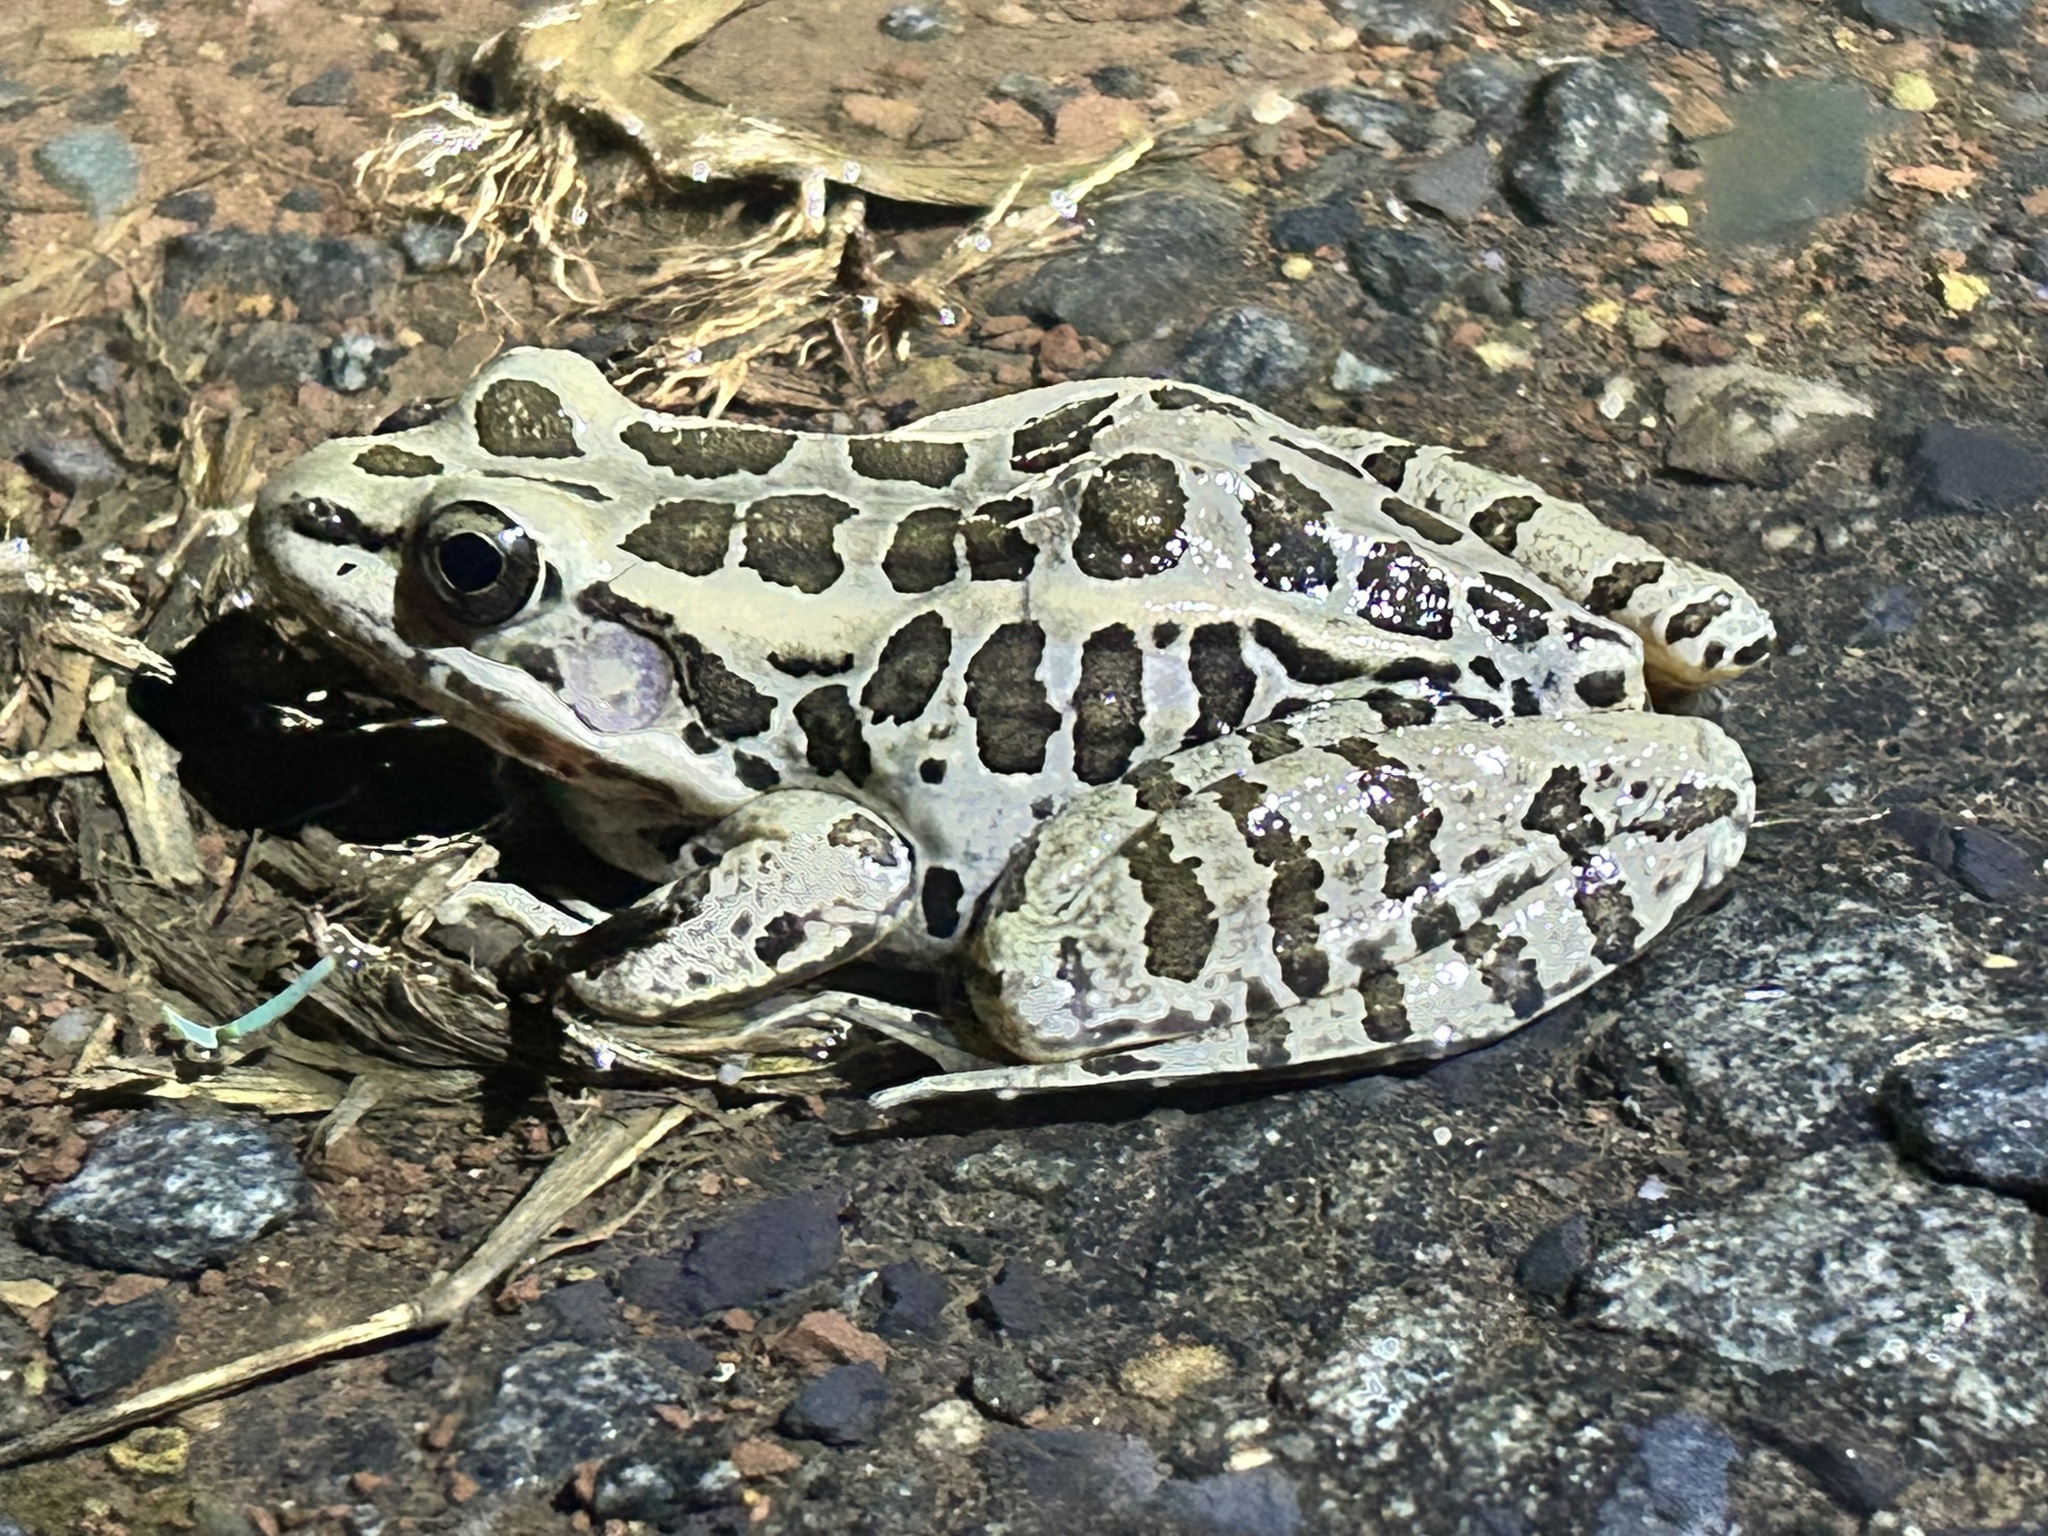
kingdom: Animalia
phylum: Chordata
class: Amphibia
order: Anura
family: Ranidae
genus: Lithobates
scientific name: Lithobates palustris
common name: Pickerel frog
